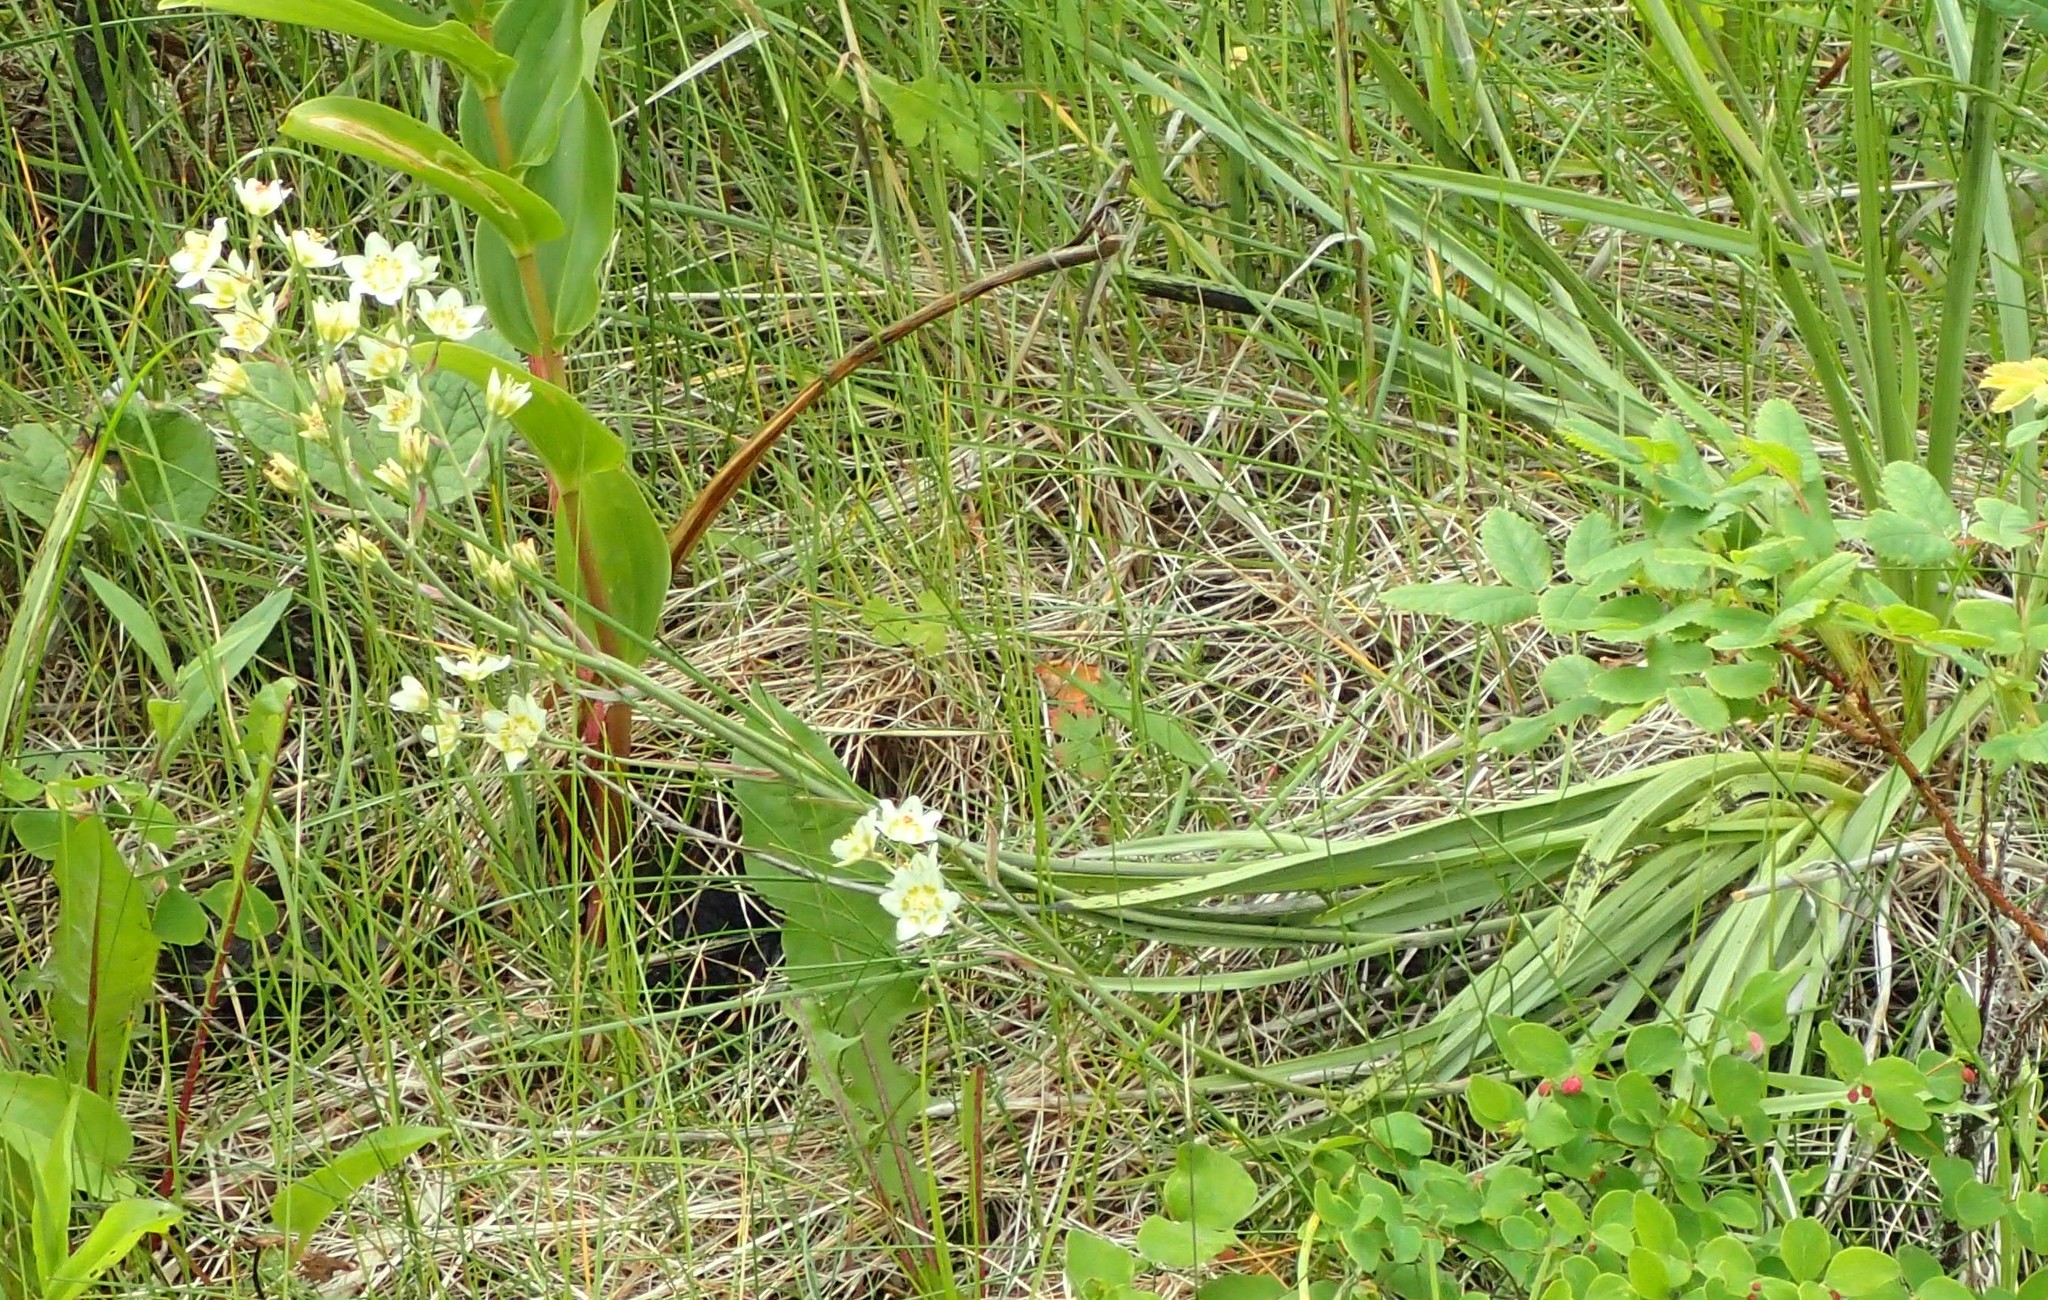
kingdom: Plantae
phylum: Tracheophyta
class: Liliopsida
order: Liliales
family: Melanthiaceae
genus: Anticlea
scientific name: Anticlea elegans
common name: Mountain death camas
